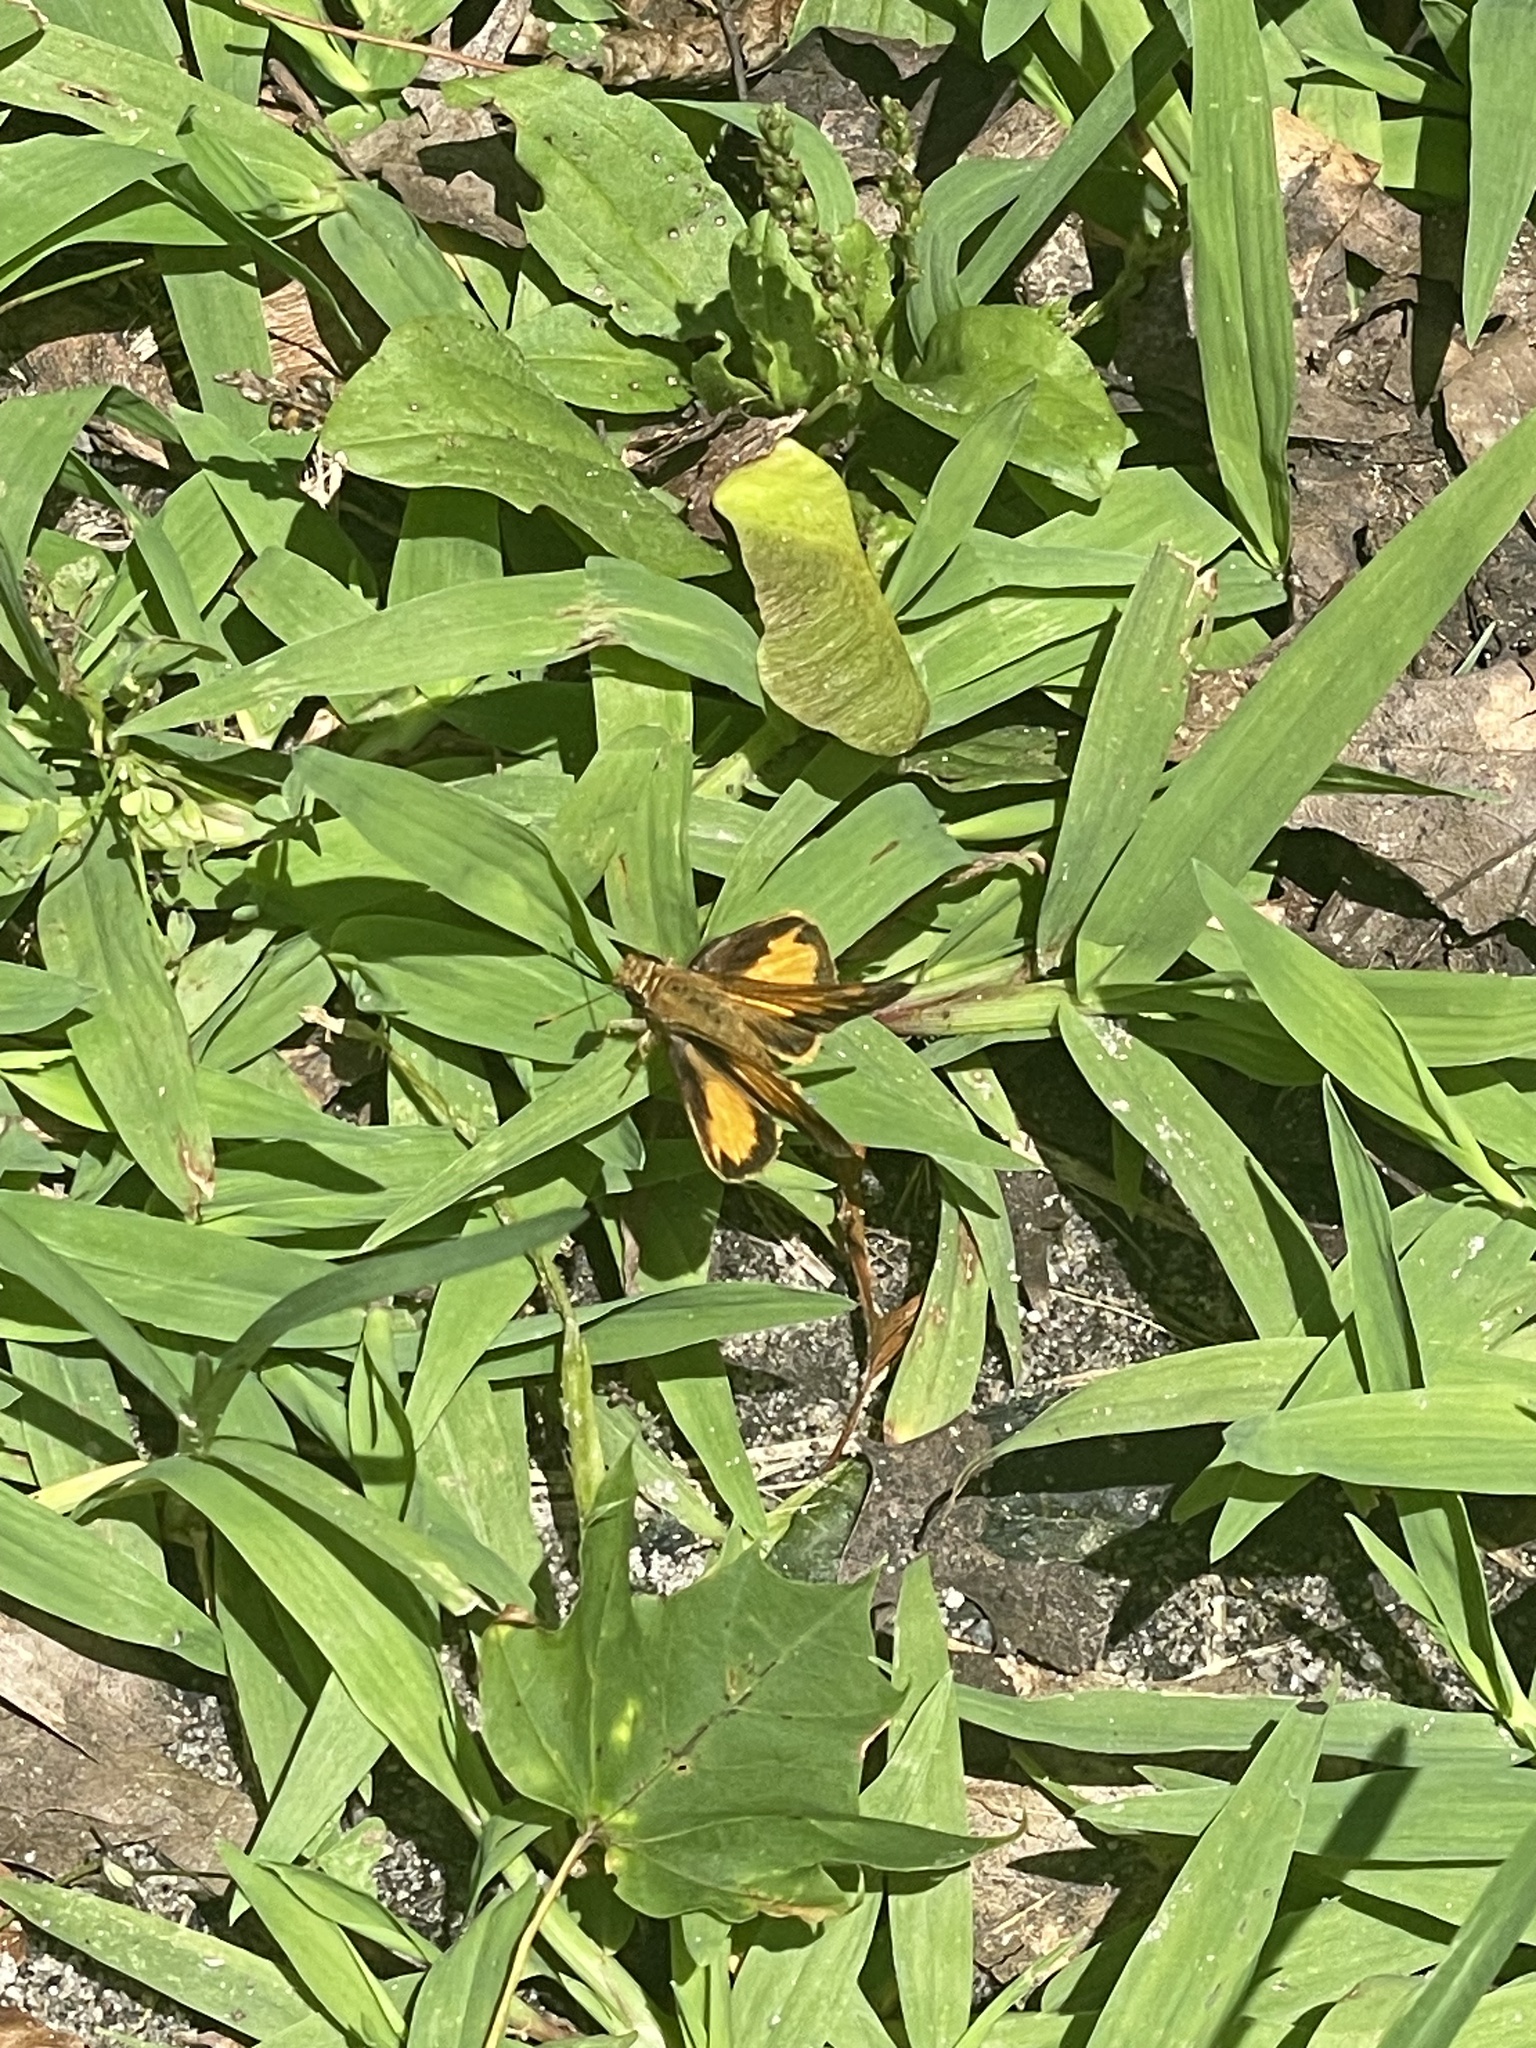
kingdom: Animalia
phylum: Arthropoda
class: Insecta
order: Lepidoptera
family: Hesperiidae
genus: Lon
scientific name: Lon zabulon
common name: Zabulon skipper
